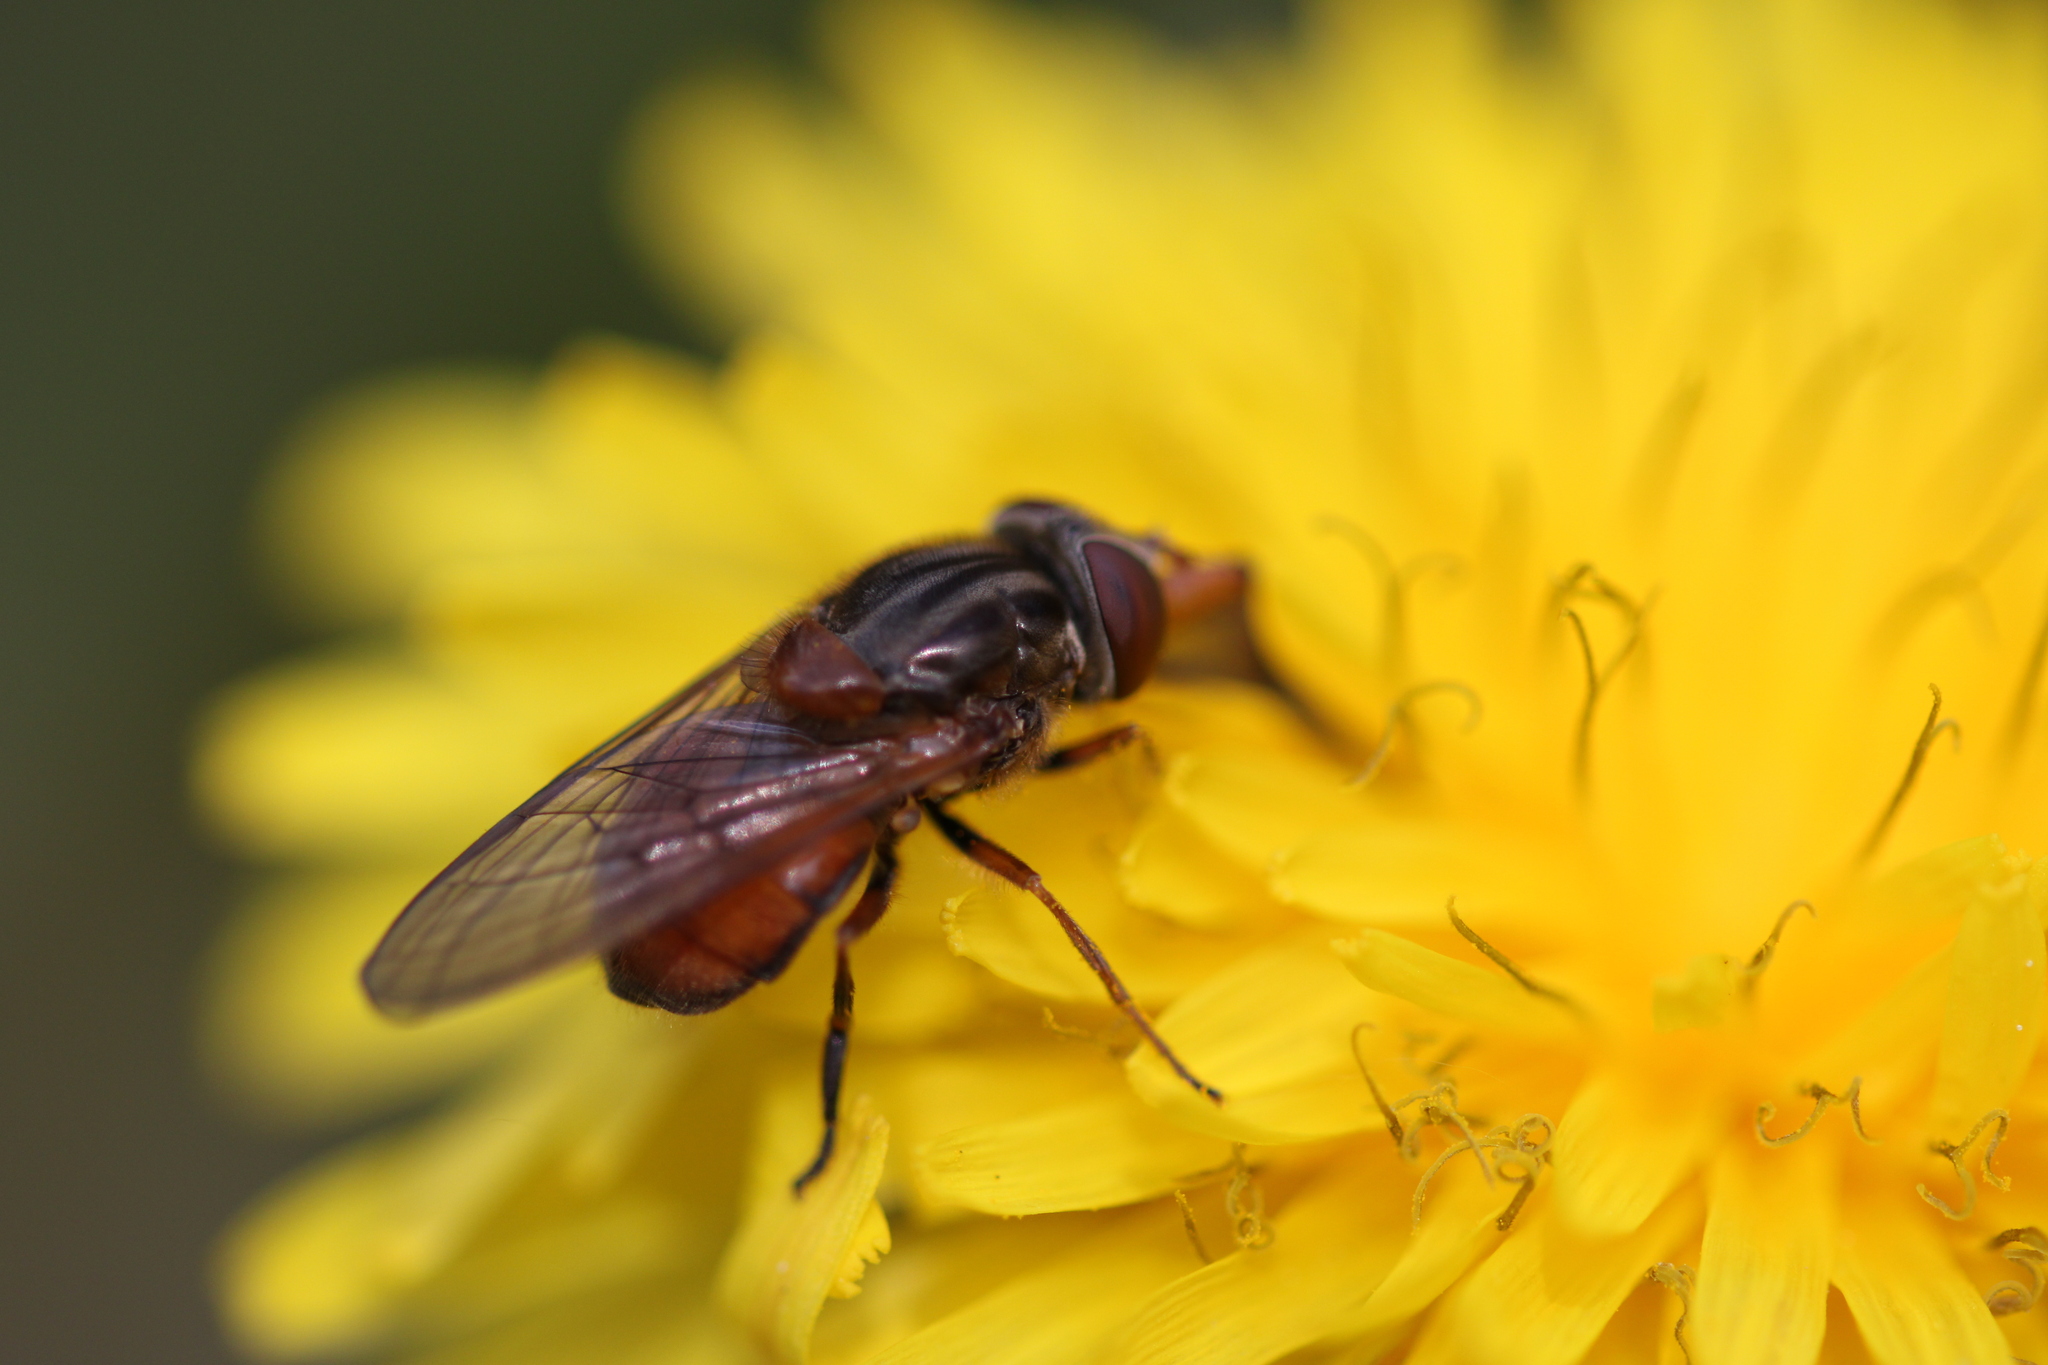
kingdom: Animalia
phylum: Arthropoda
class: Insecta
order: Diptera
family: Syrphidae
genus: Rhingia
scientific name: Rhingia campestris
